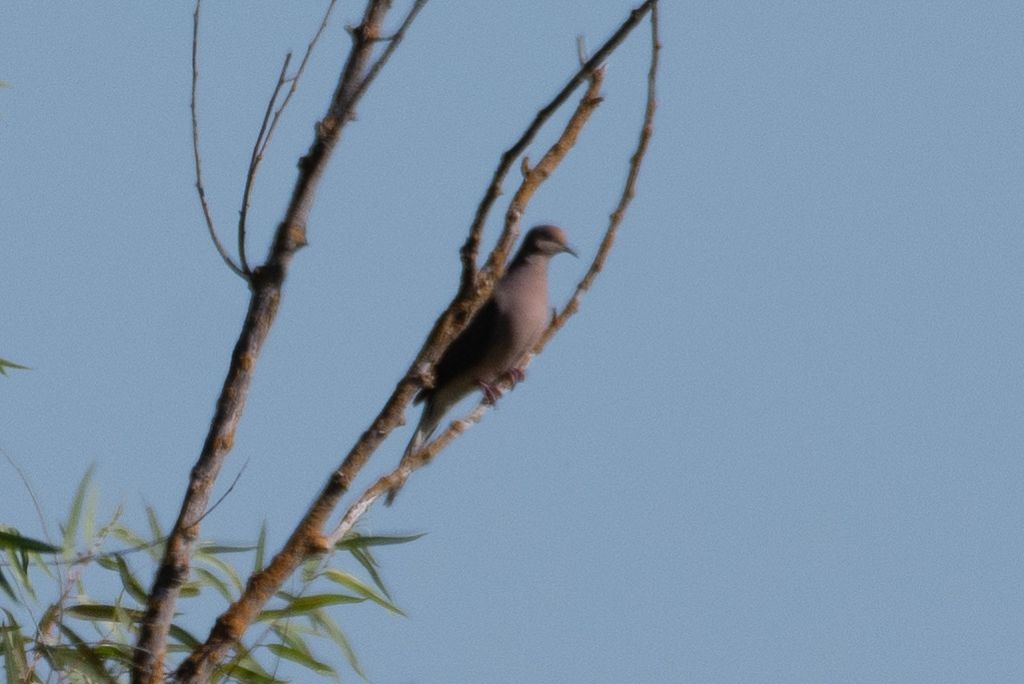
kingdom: Animalia
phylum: Chordata
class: Aves
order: Columbiformes
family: Columbidae
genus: Zenaida
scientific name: Zenaida macroura
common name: Mourning dove
